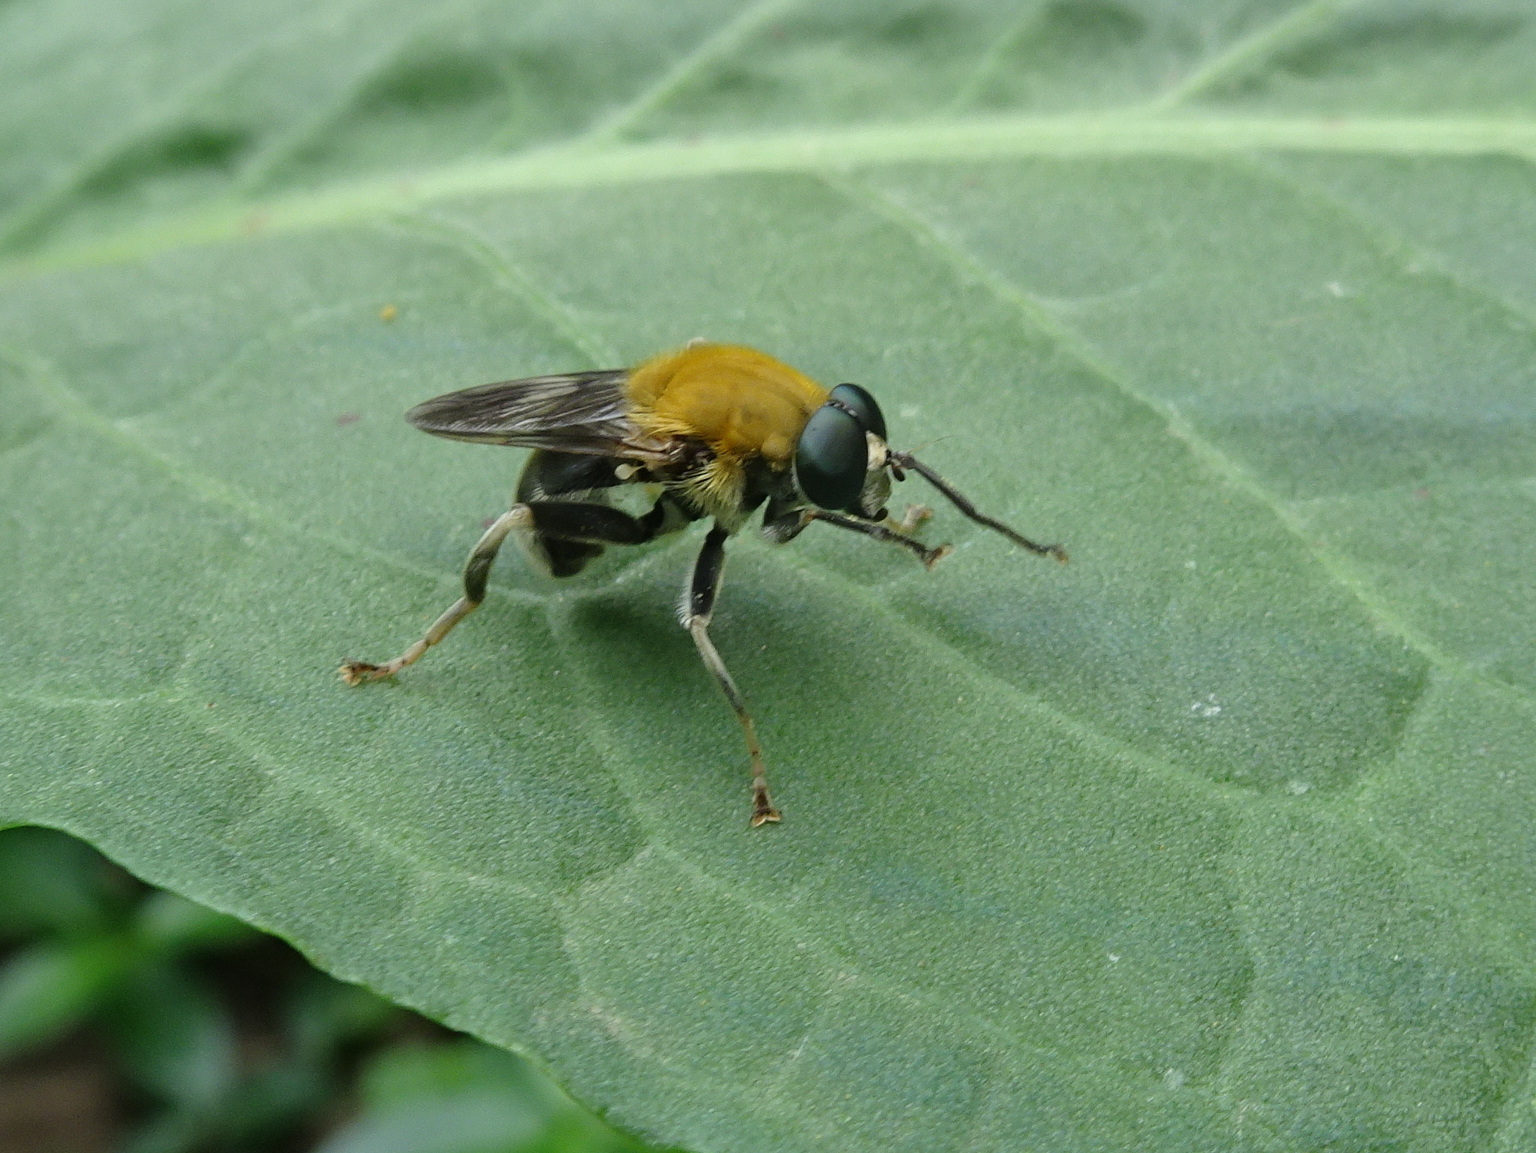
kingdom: Animalia
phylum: Arthropoda
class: Insecta
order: Diptera
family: Syrphidae
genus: Pterallastes
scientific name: Pterallastes thoracicus
